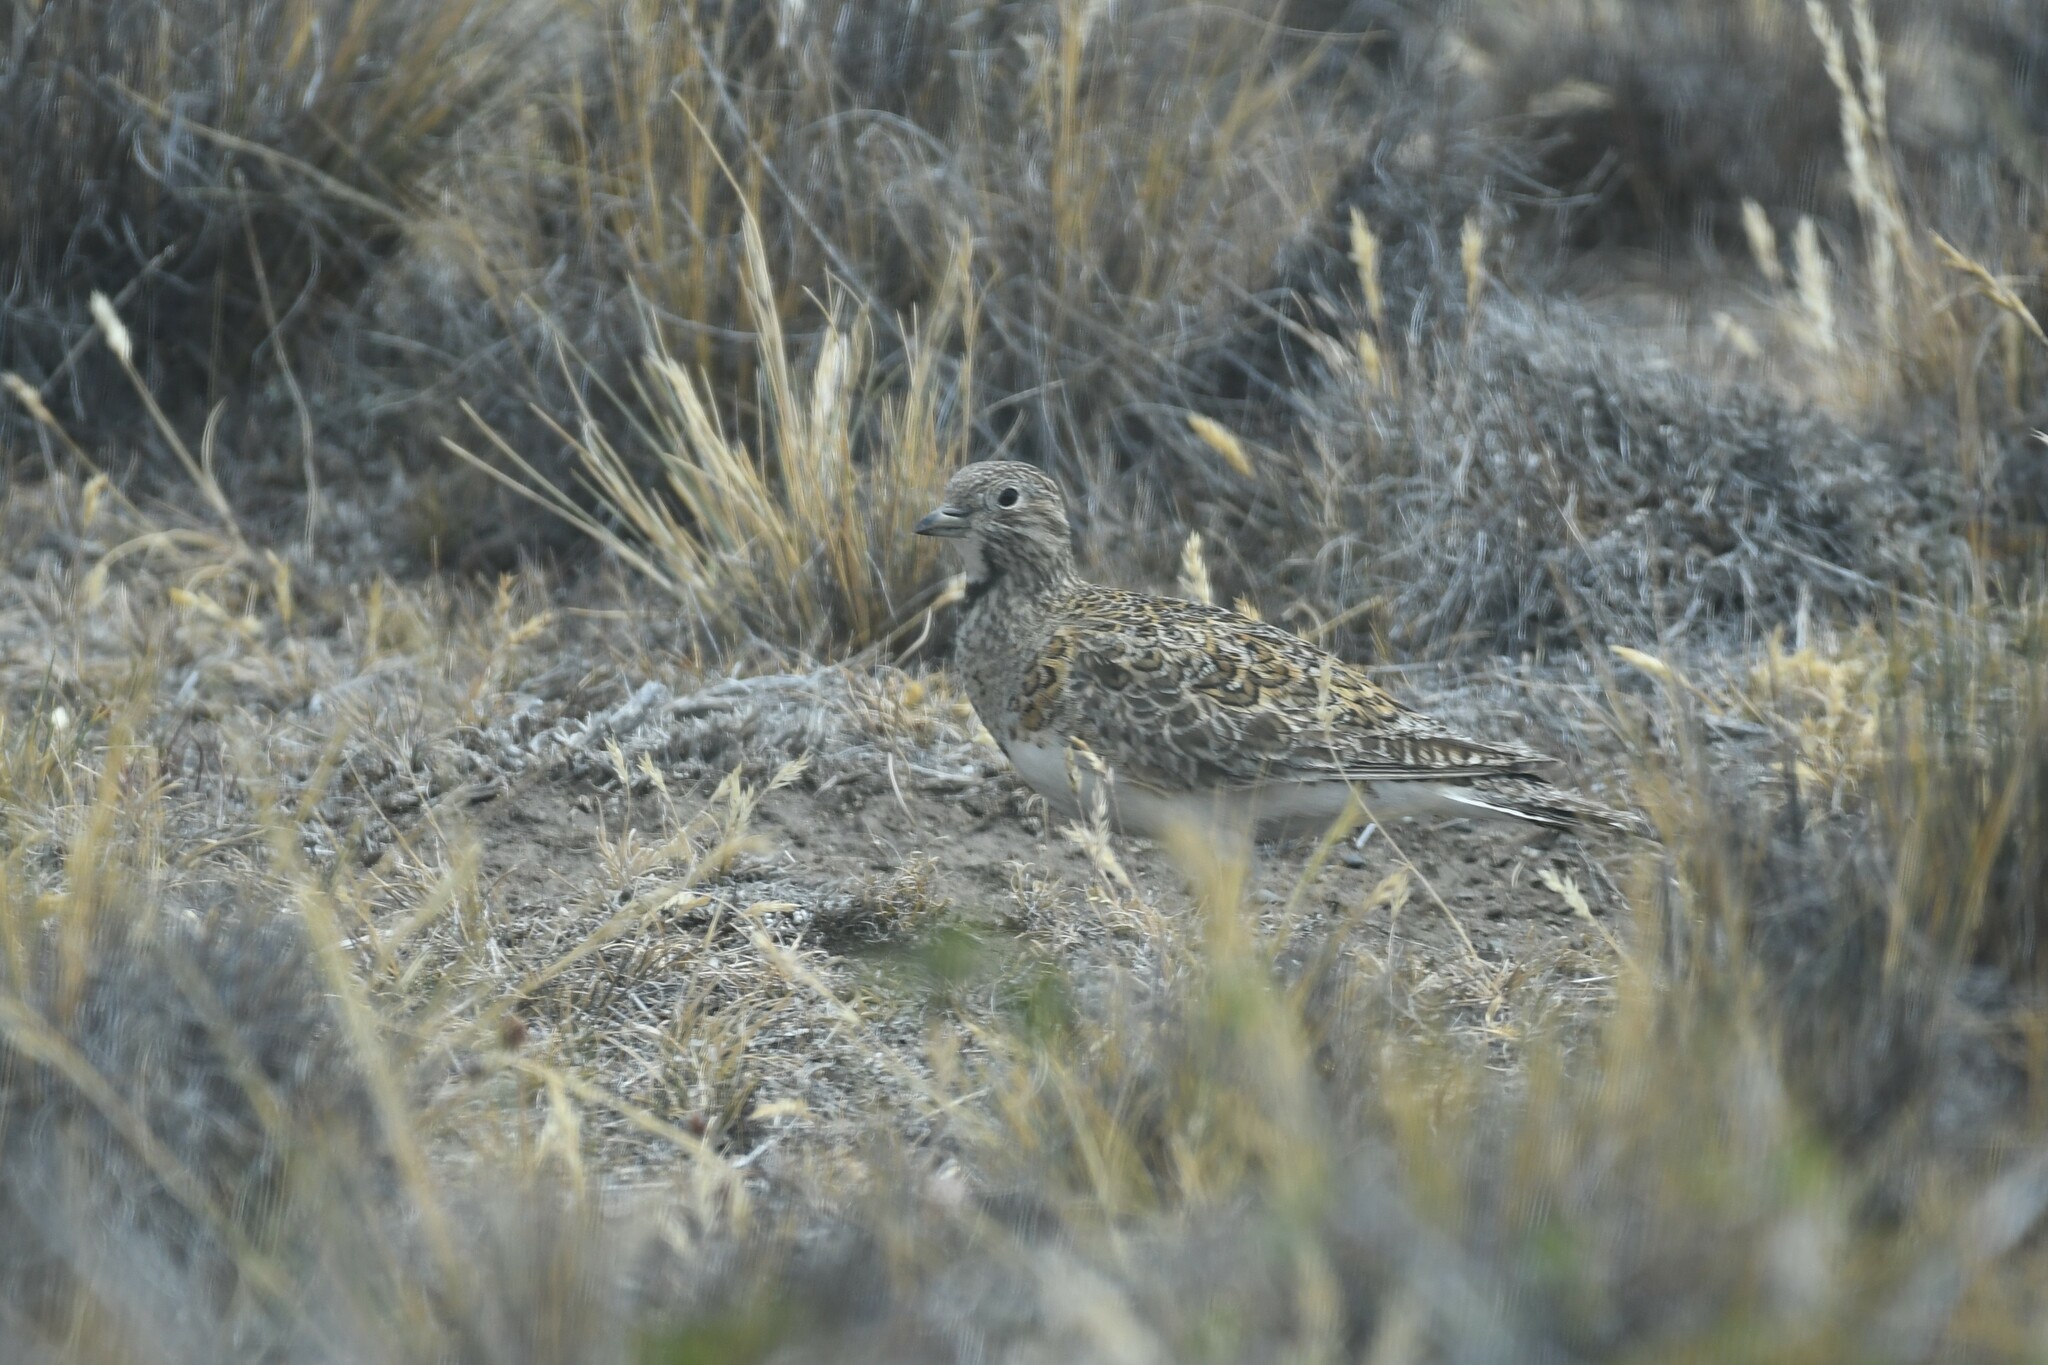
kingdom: Animalia
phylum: Chordata
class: Aves
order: Charadriiformes
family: Thinocoridae
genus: Thinocorus
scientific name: Thinocorus rumicivorus
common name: Least seedsnipe
